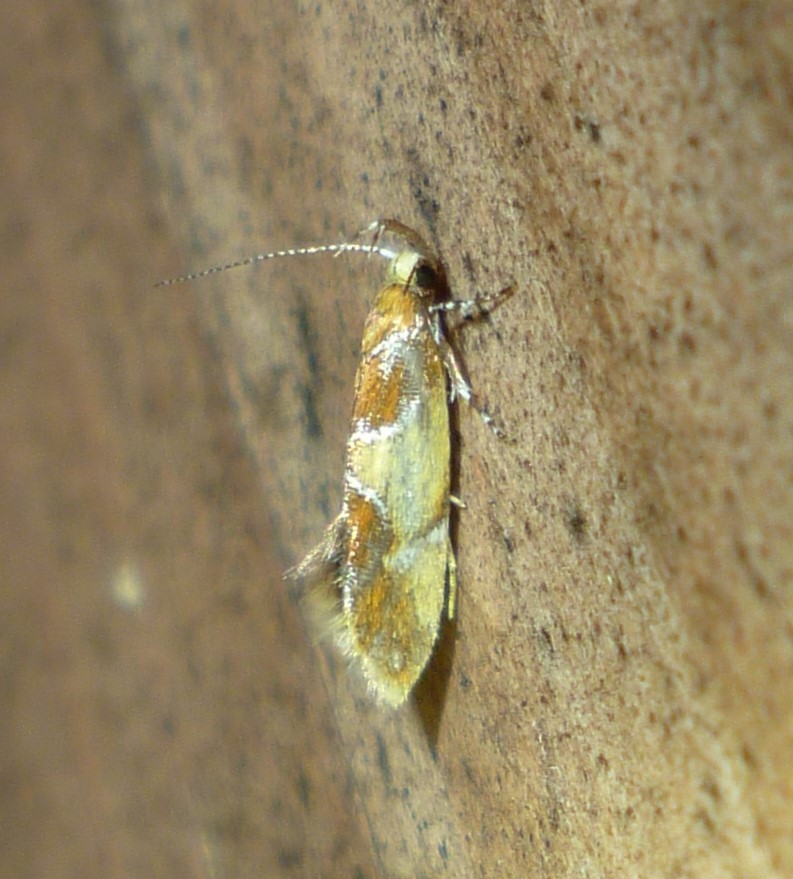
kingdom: Animalia
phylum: Arthropoda
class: Insecta
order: Lepidoptera
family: Oecophoridae
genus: Callima
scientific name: Callima argenticinctella
